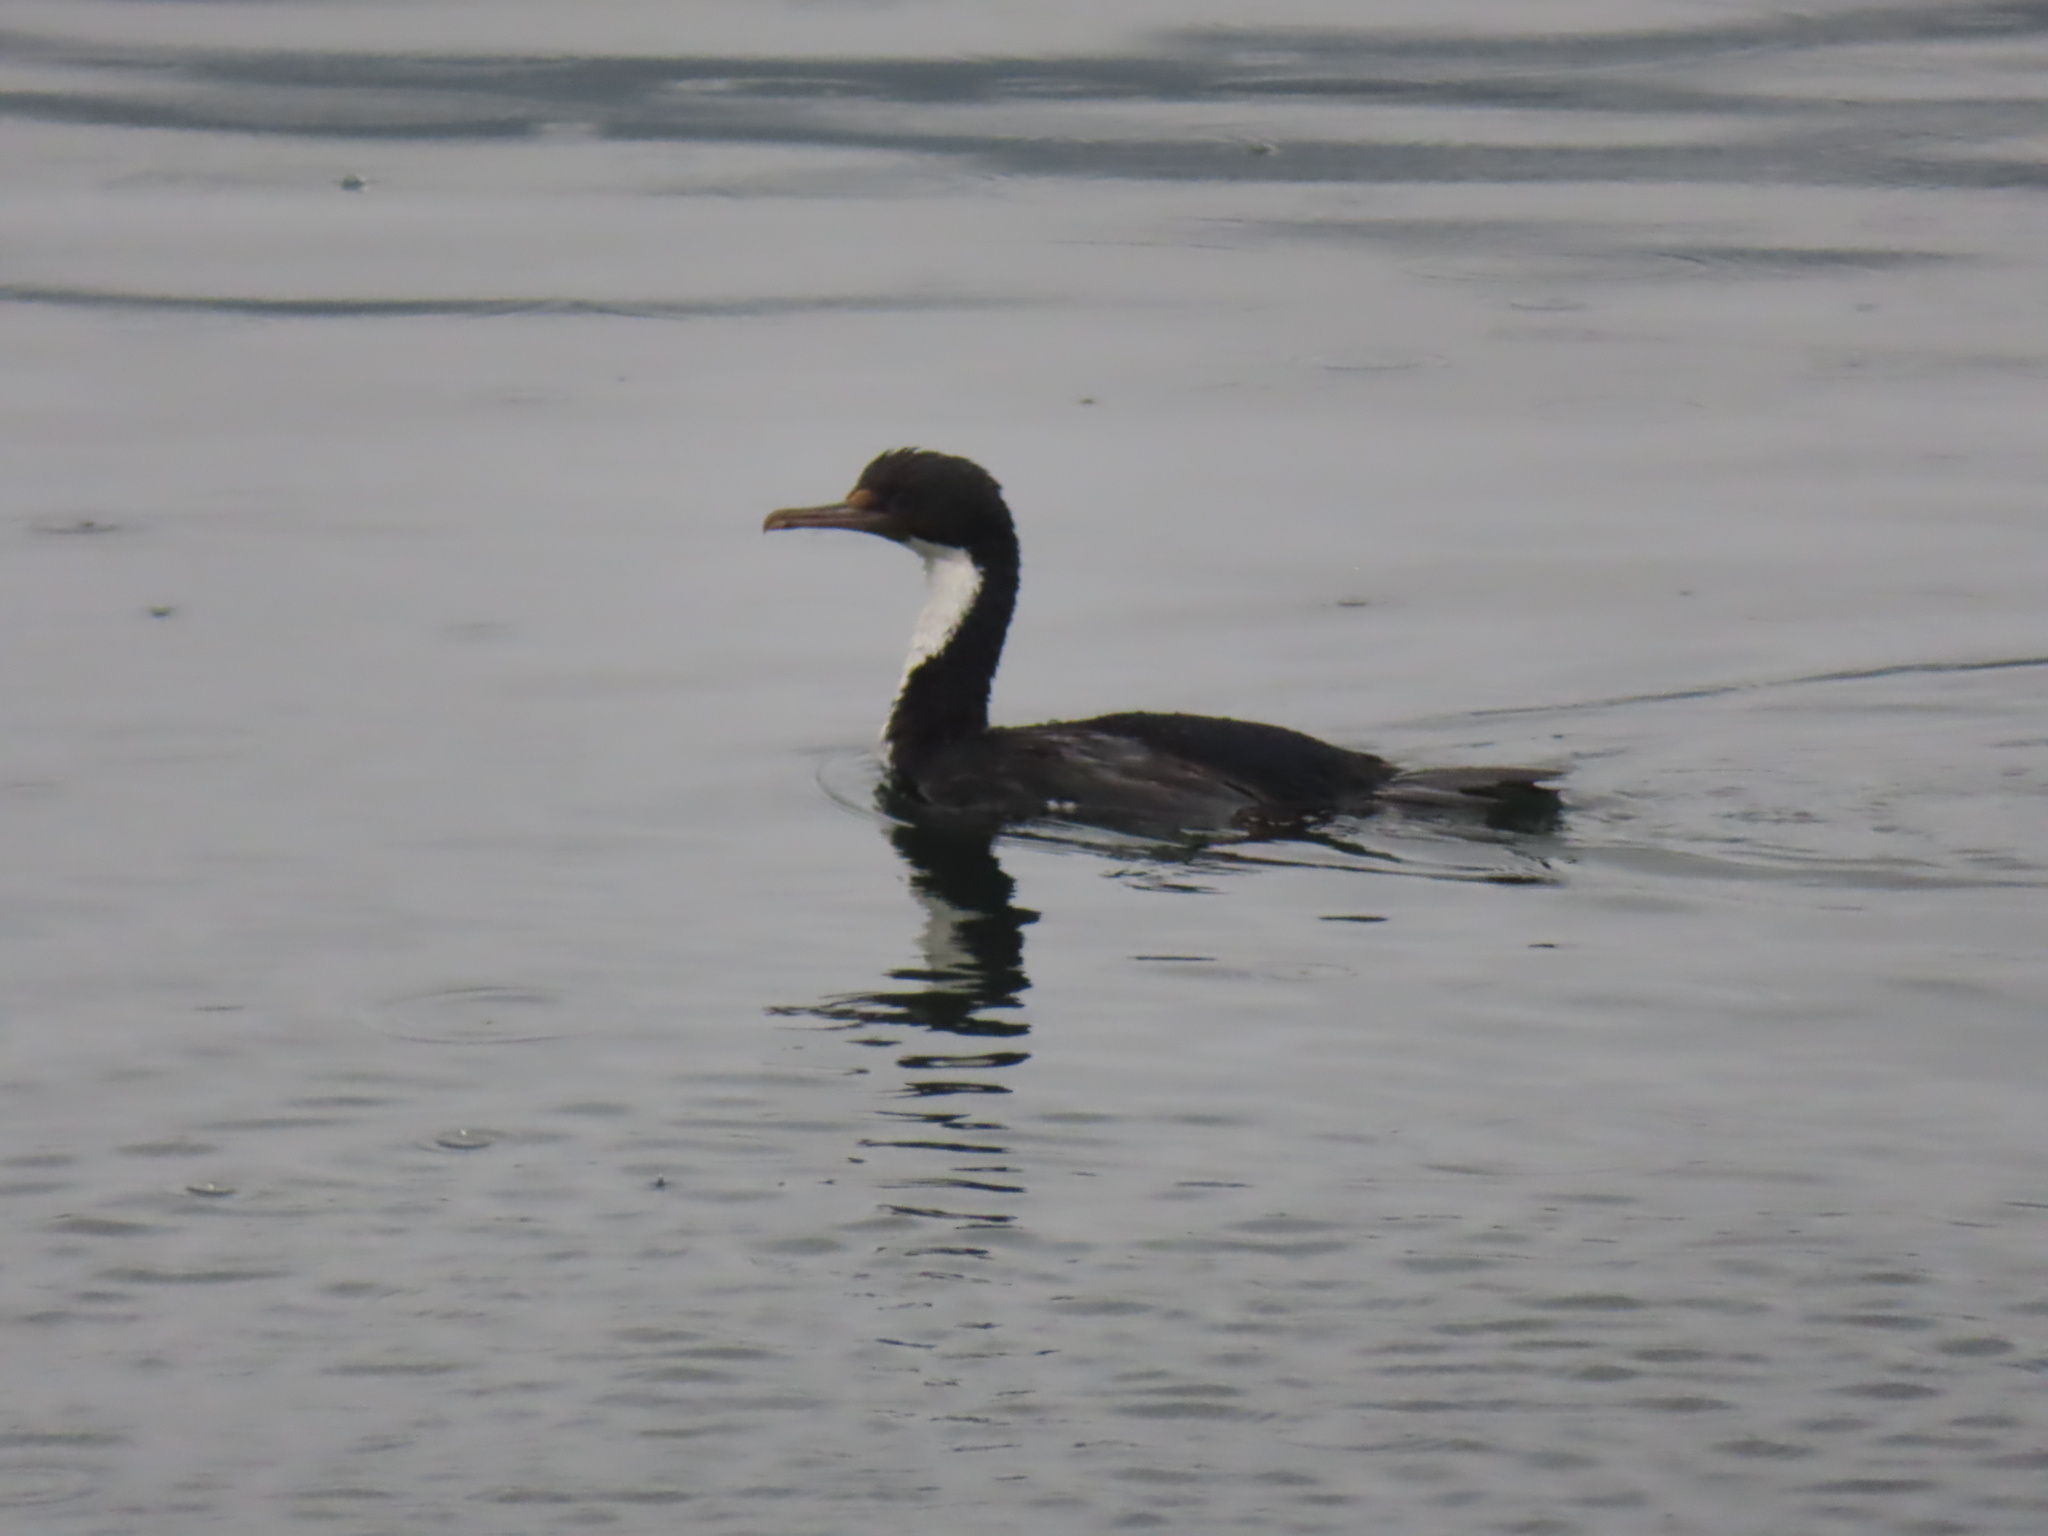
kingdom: Animalia
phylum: Chordata
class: Aves
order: Suliformes
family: Phalacrocoracidae
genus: Leucocarbo
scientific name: Leucocarbo atriceps
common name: Imperial shag
